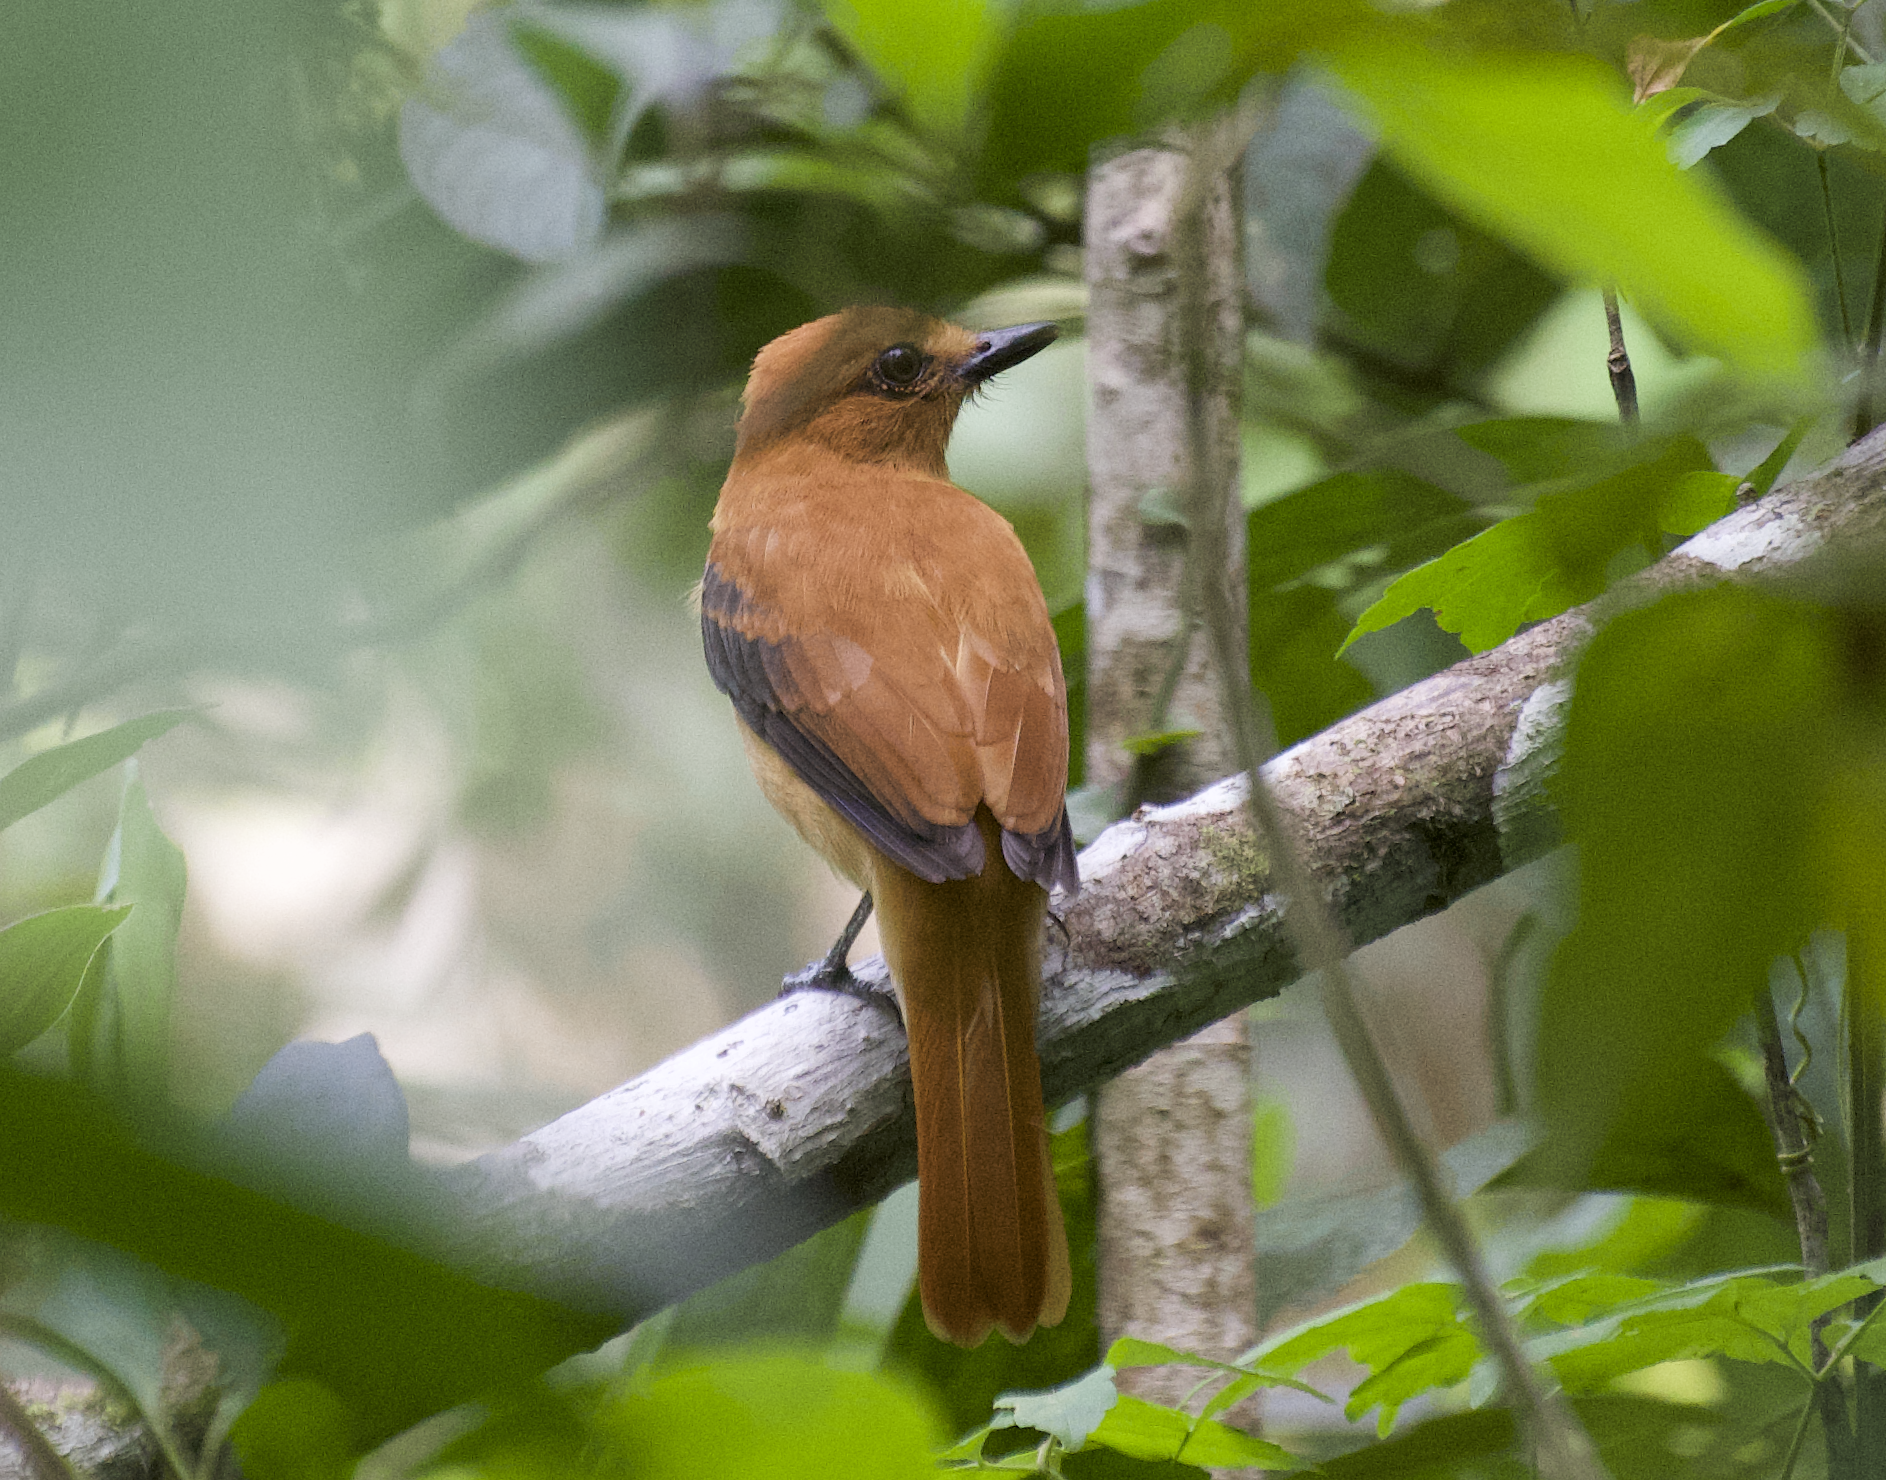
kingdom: Animalia
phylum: Chordata
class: Aves
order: Passeriformes
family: Tyrannidae
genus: Attila
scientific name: Attila cinnamomeus
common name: Cinnamon attila
